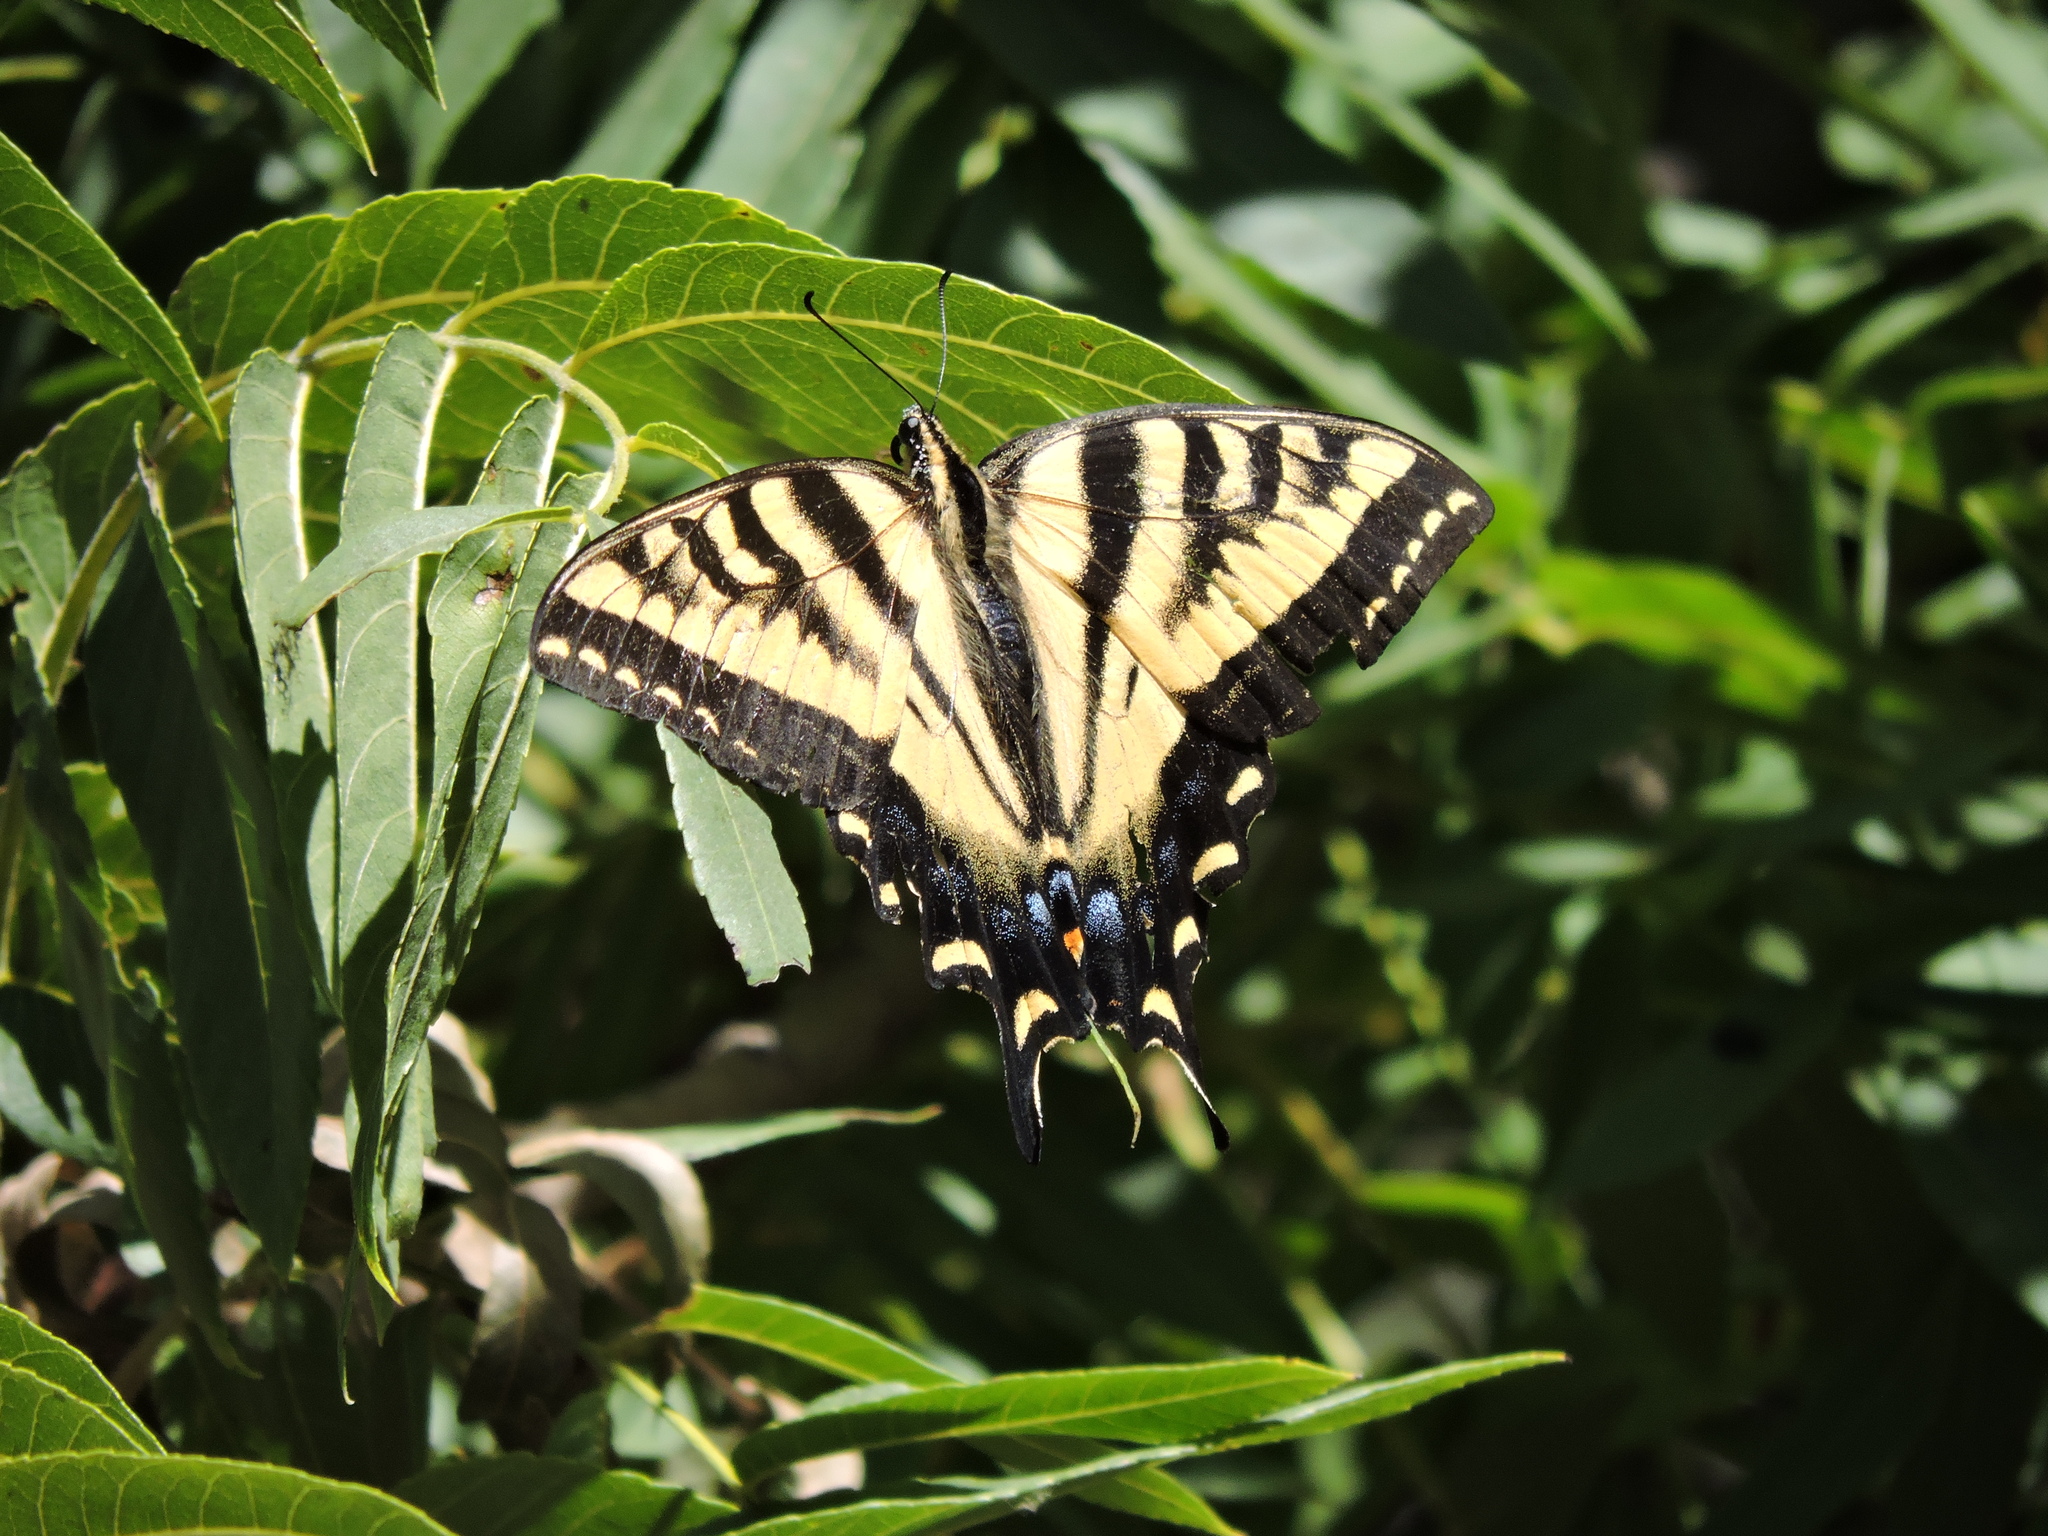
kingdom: Animalia
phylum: Arthropoda
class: Insecta
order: Lepidoptera
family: Papilionidae
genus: Papilio
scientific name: Papilio rutulus
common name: Western tiger swallowtail
